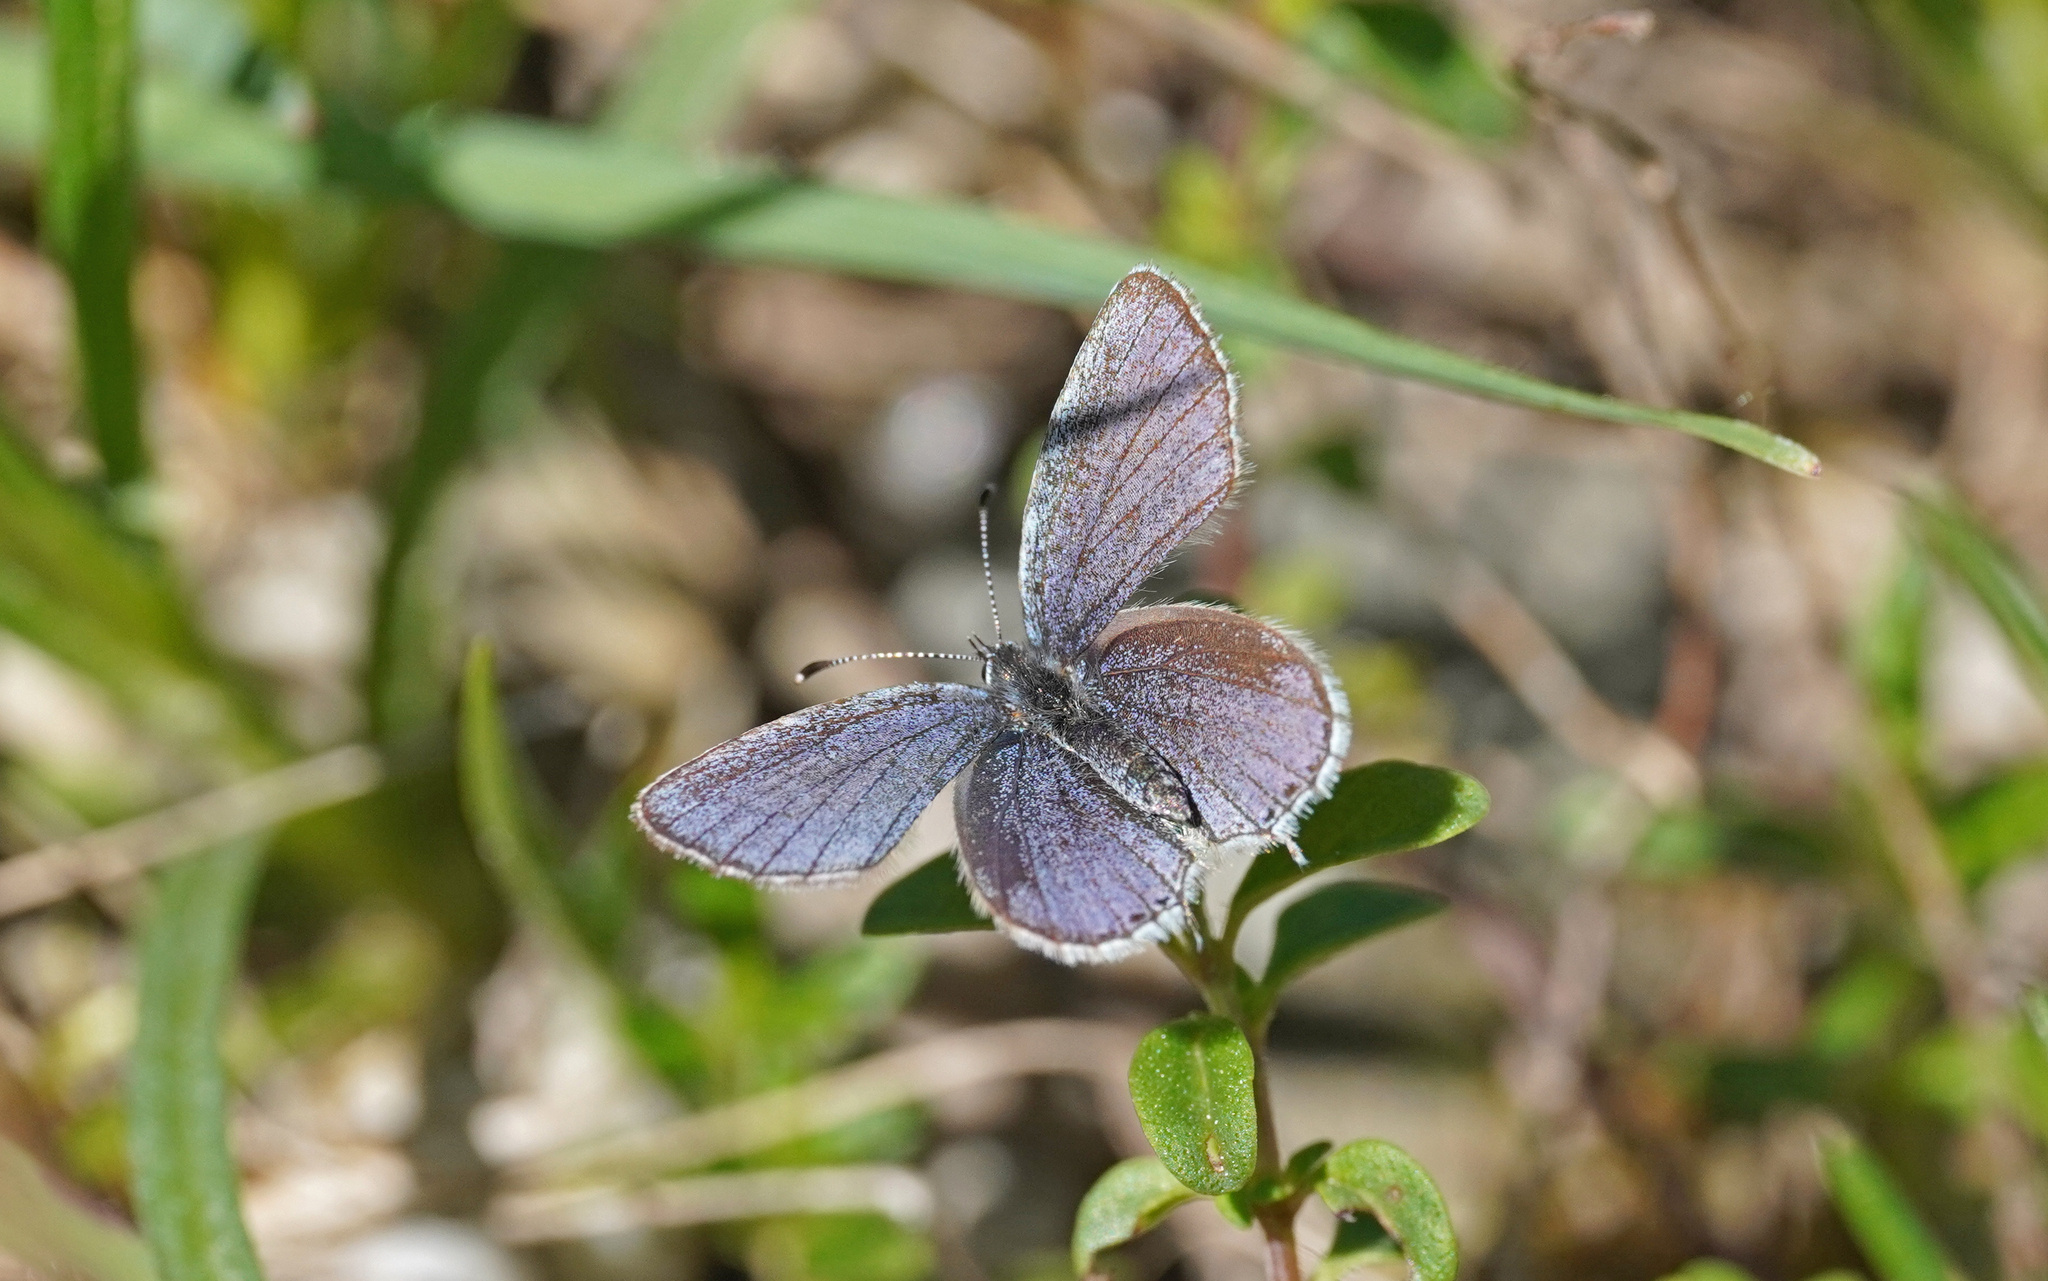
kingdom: Animalia
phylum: Arthropoda
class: Insecta
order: Lepidoptera
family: Lycaenidae
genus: Elkalyce
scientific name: Elkalyce argiades
